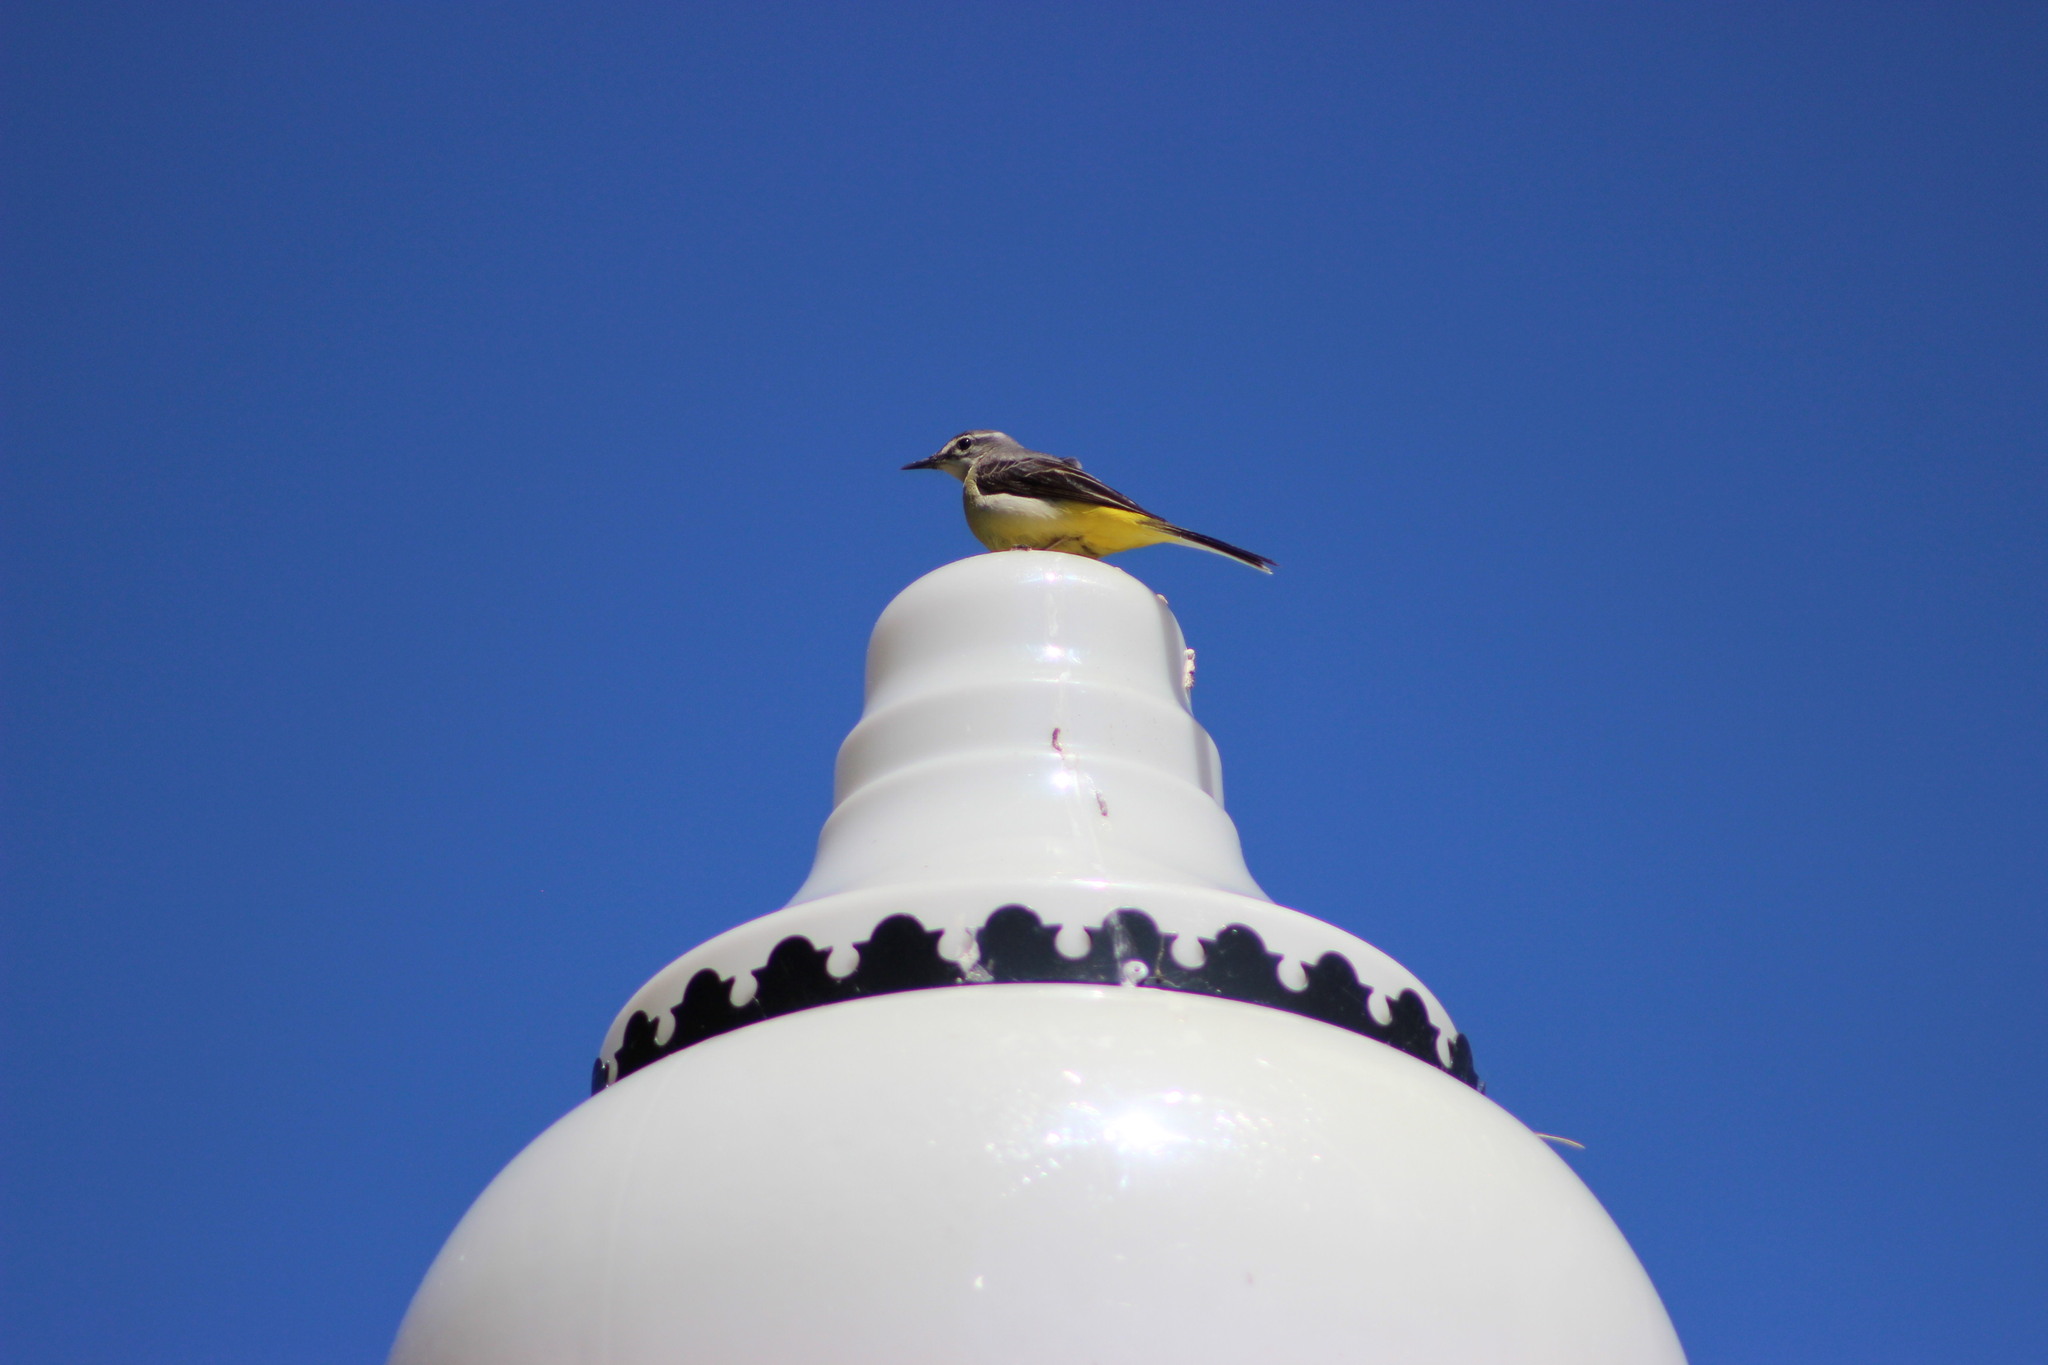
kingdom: Animalia
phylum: Chordata
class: Aves
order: Passeriformes
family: Motacillidae
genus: Motacilla
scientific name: Motacilla cinerea
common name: Grey wagtail
